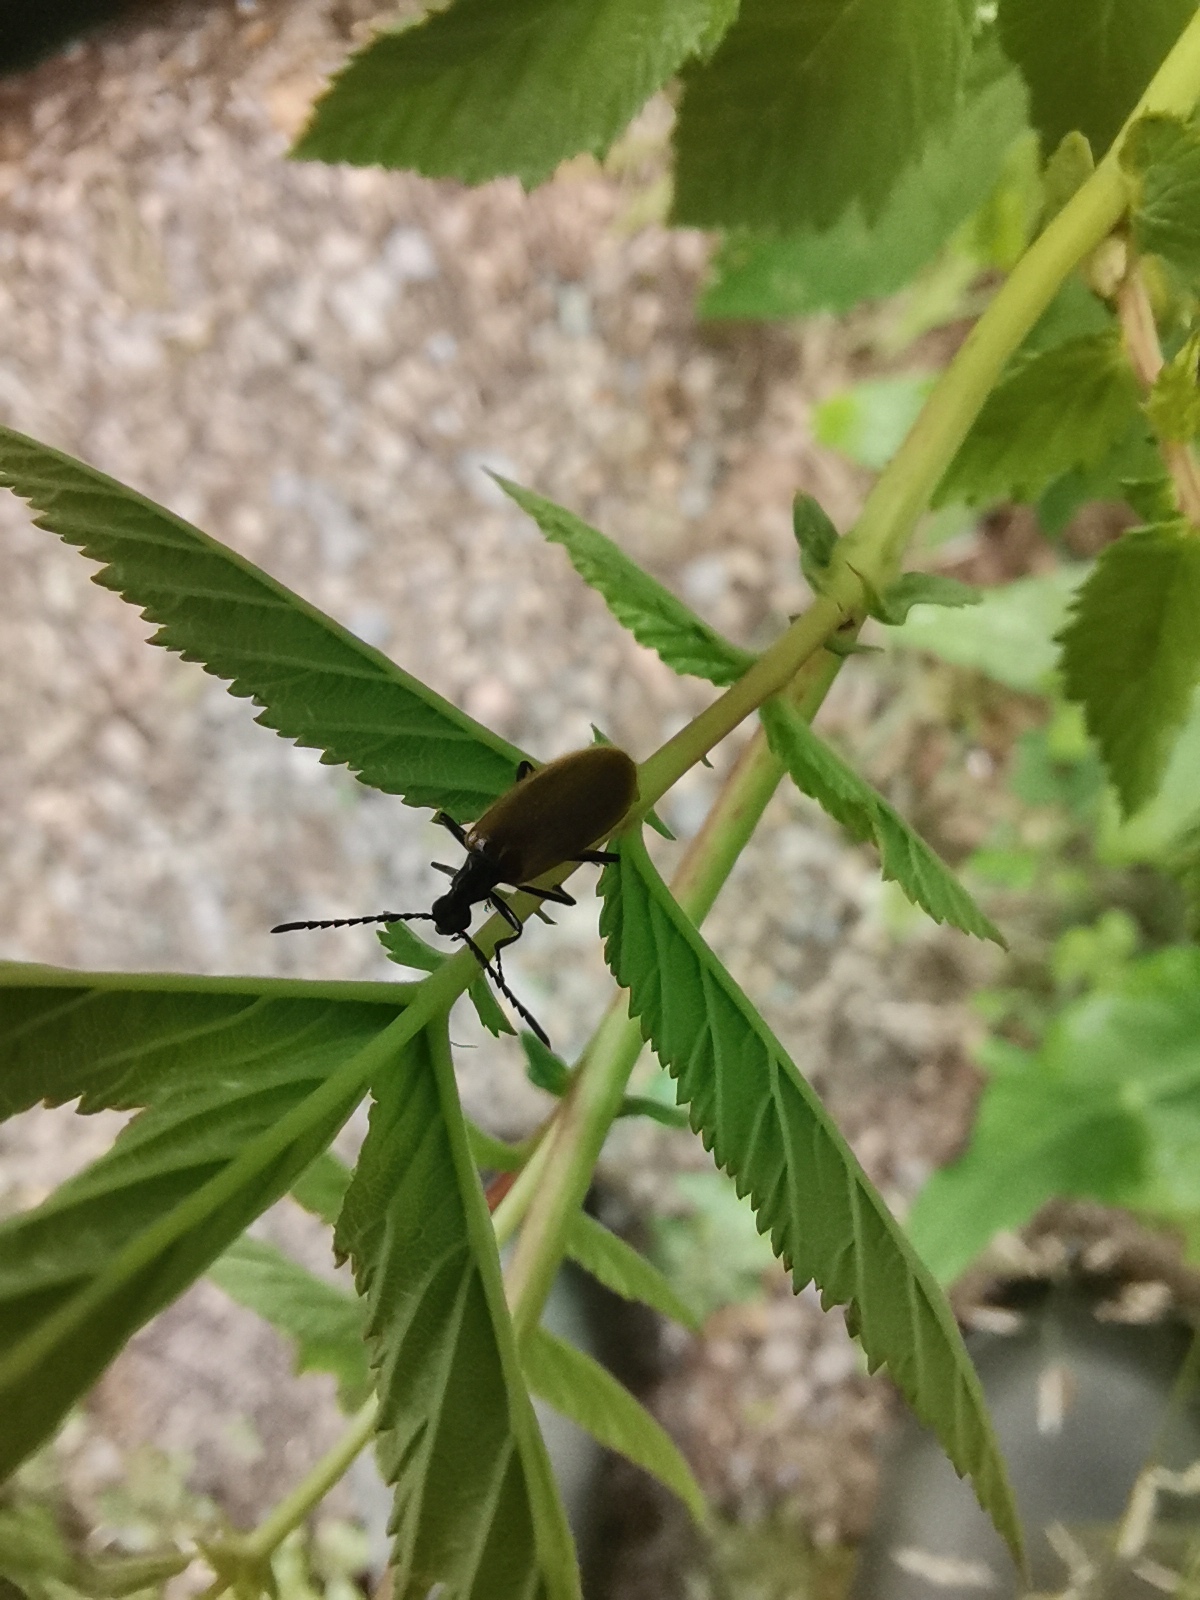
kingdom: Animalia
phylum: Arthropoda
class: Insecta
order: Coleoptera
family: Tenebrionidae
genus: Lagria
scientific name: Lagria hirta
